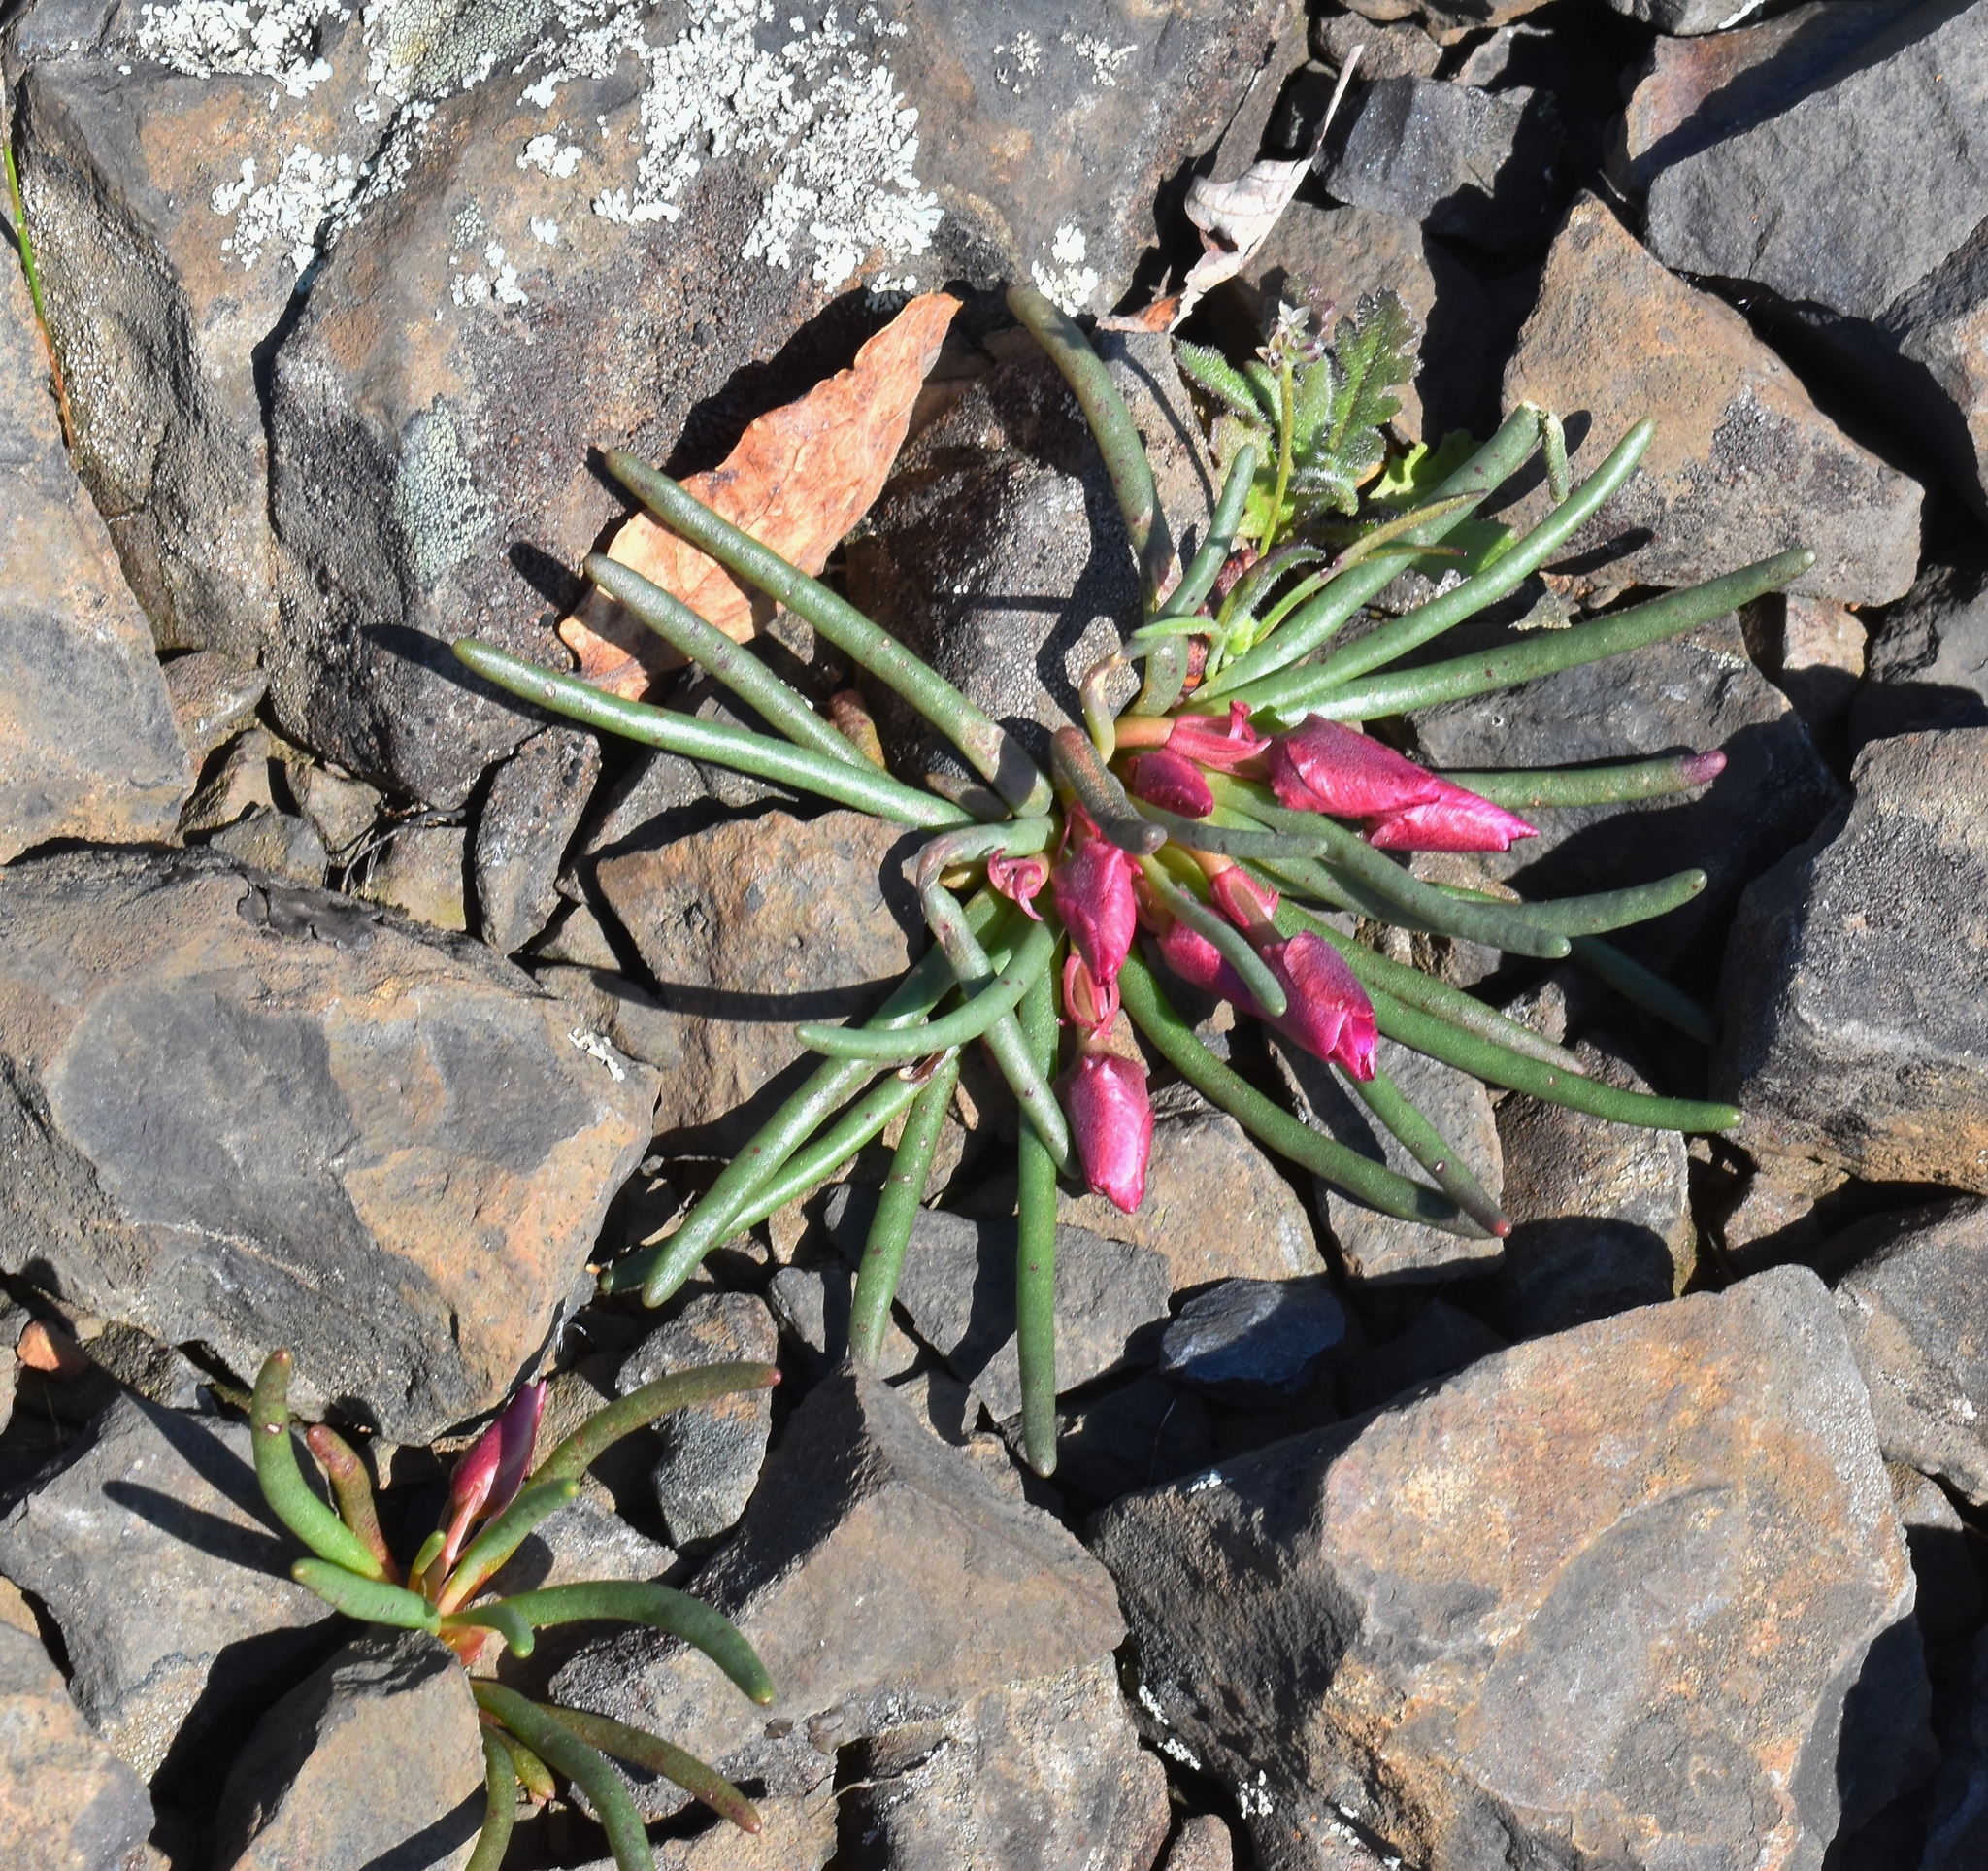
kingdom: Plantae
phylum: Tracheophyta
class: Magnoliopsida
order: Caryophyllales
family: Montiaceae
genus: Lewisia
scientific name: Lewisia rediviva
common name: Bitter-root
